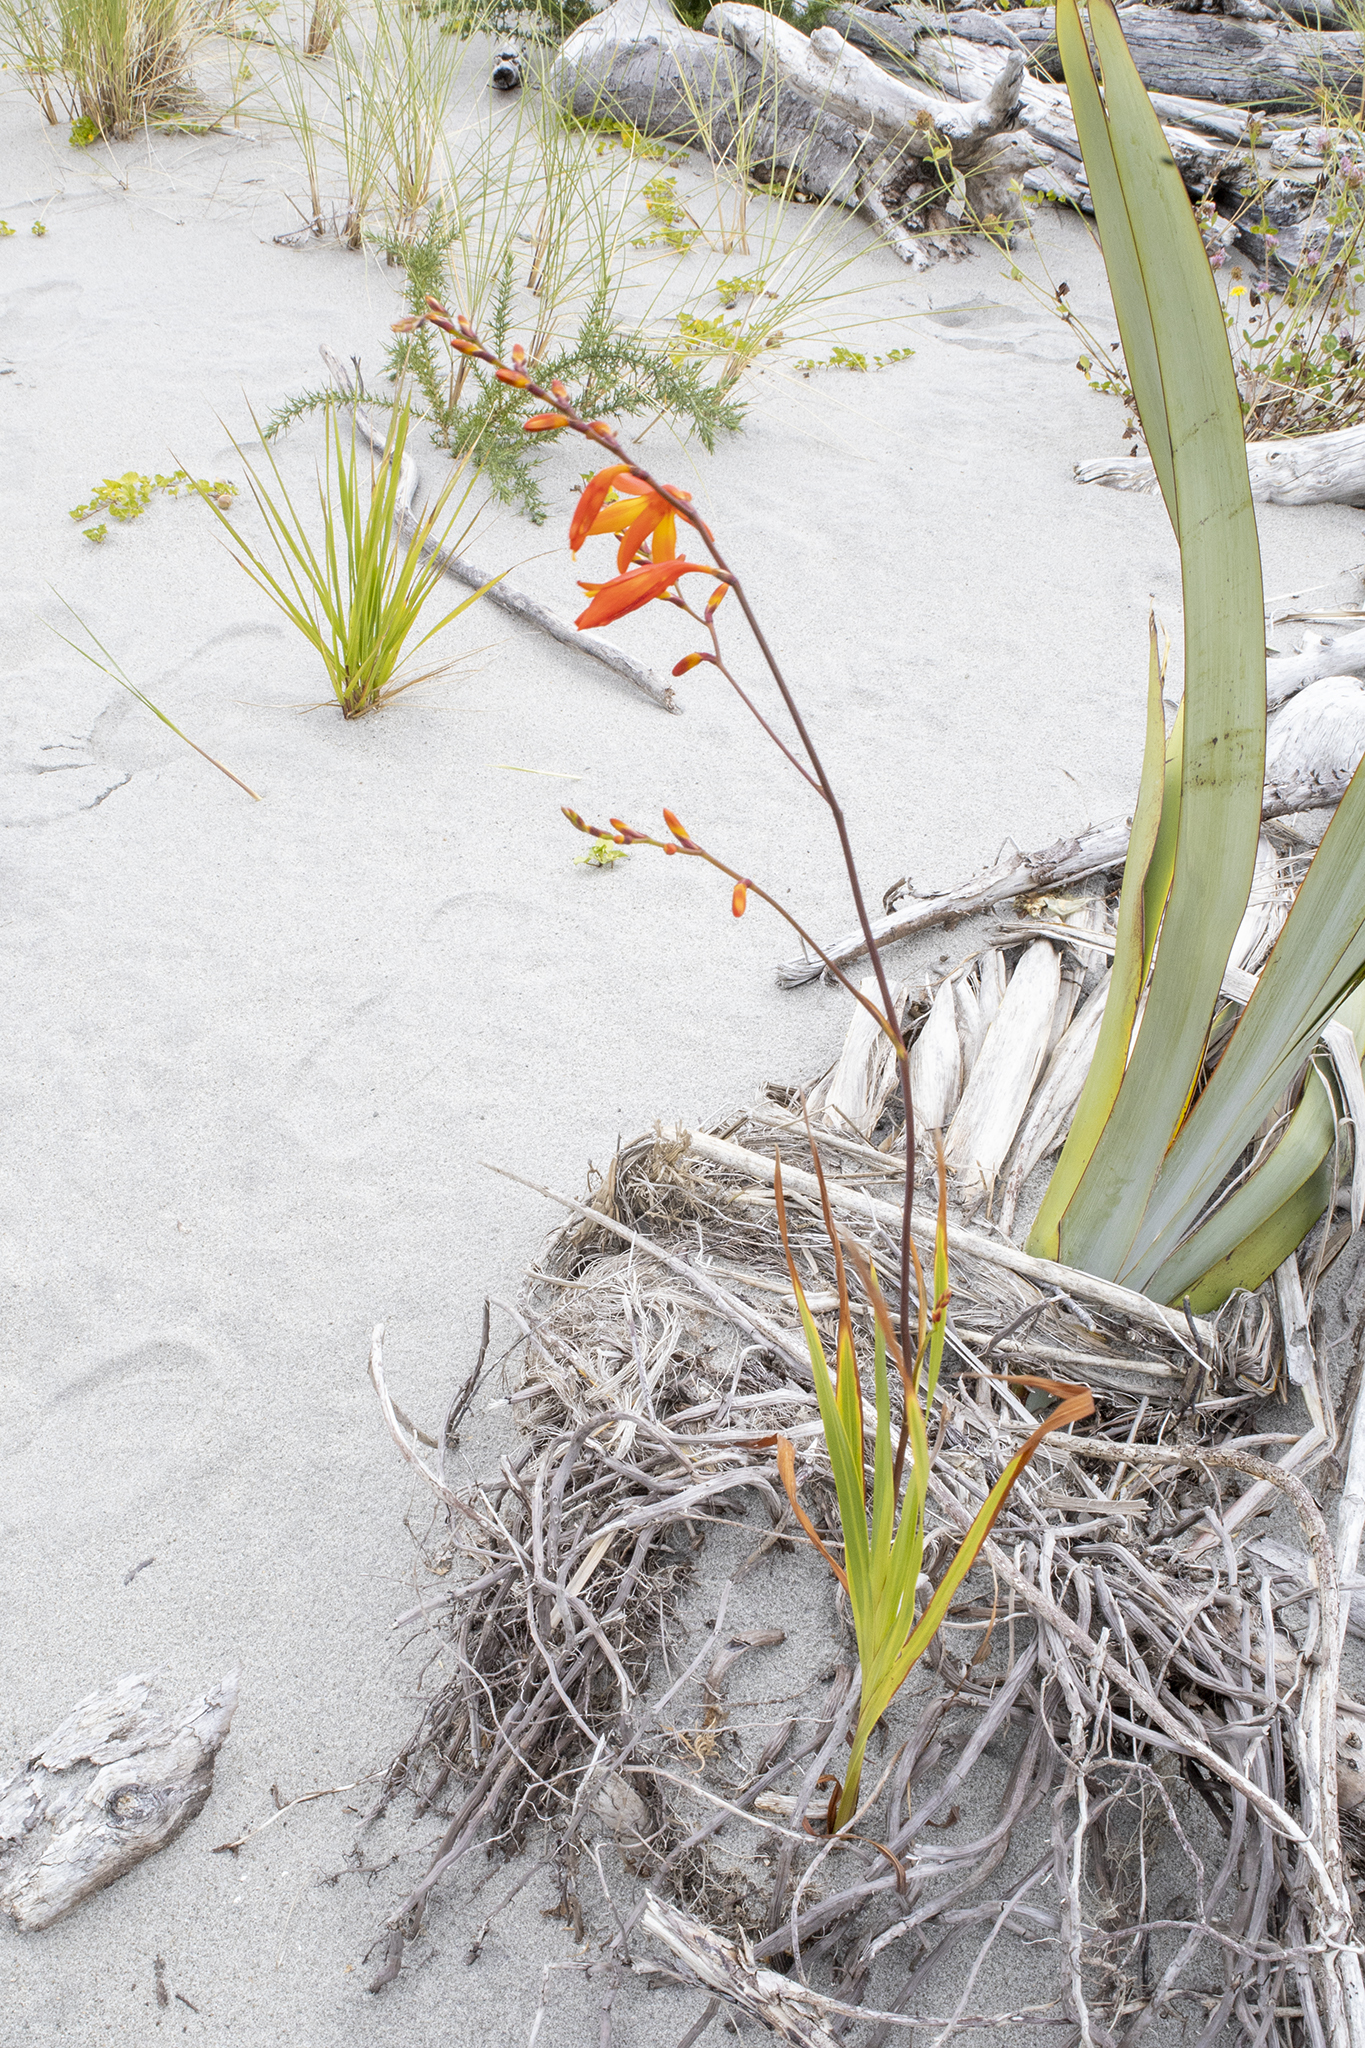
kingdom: Plantae
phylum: Tracheophyta
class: Liliopsida
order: Asparagales
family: Iridaceae
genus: Crocosmia
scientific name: Crocosmia crocosmiiflora
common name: Montbretia
